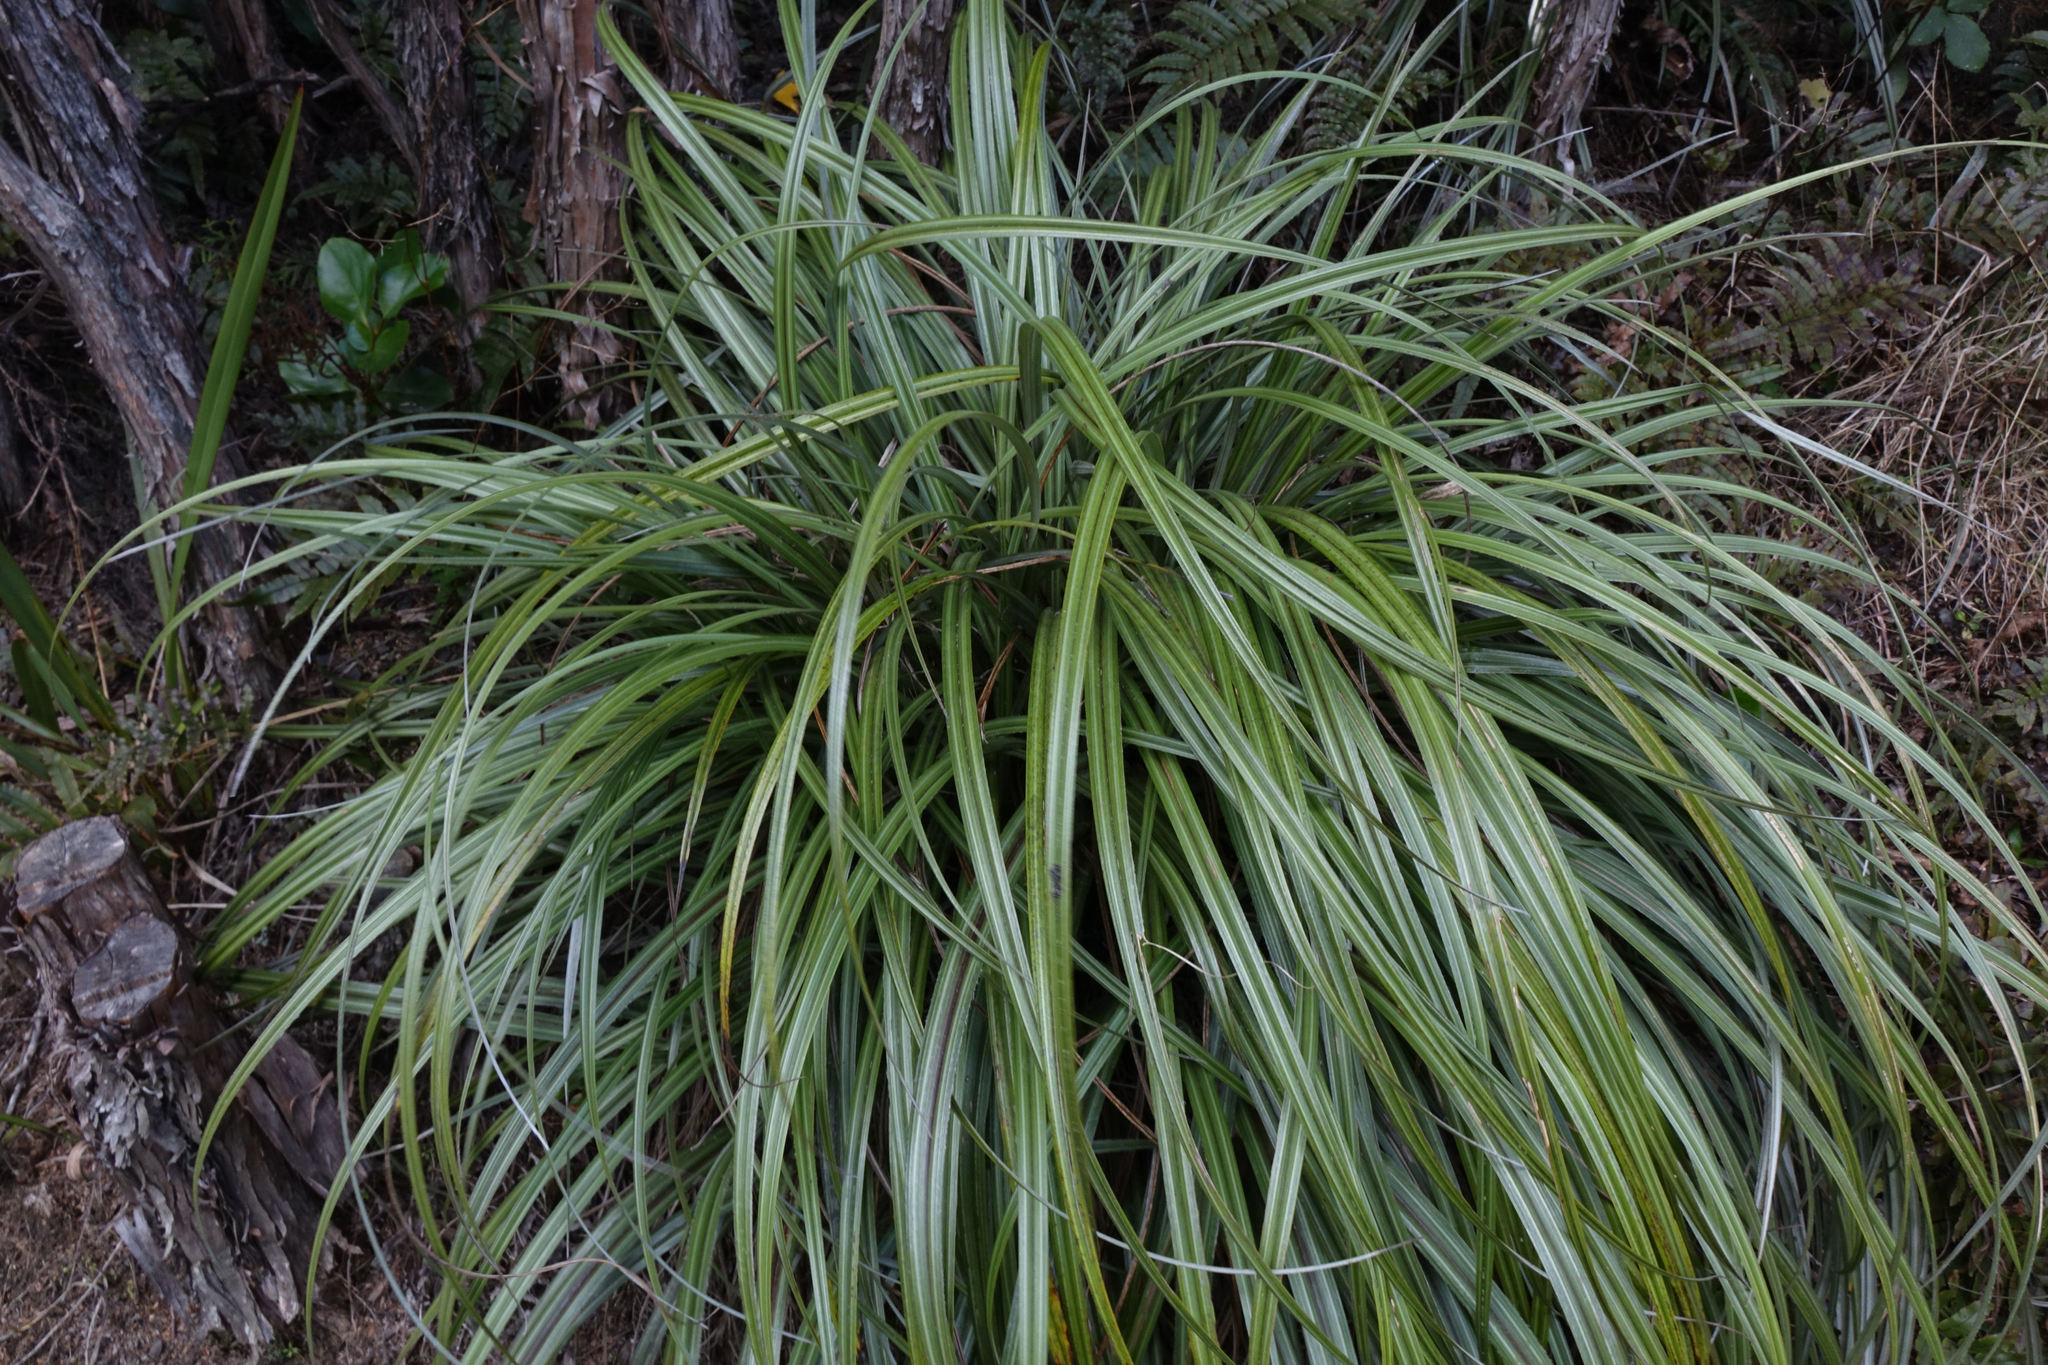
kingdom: Plantae
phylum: Tracheophyta
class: Liliopsida
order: Asparagales
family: Asteliaceae
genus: Astelia
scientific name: Astelia nervosa
